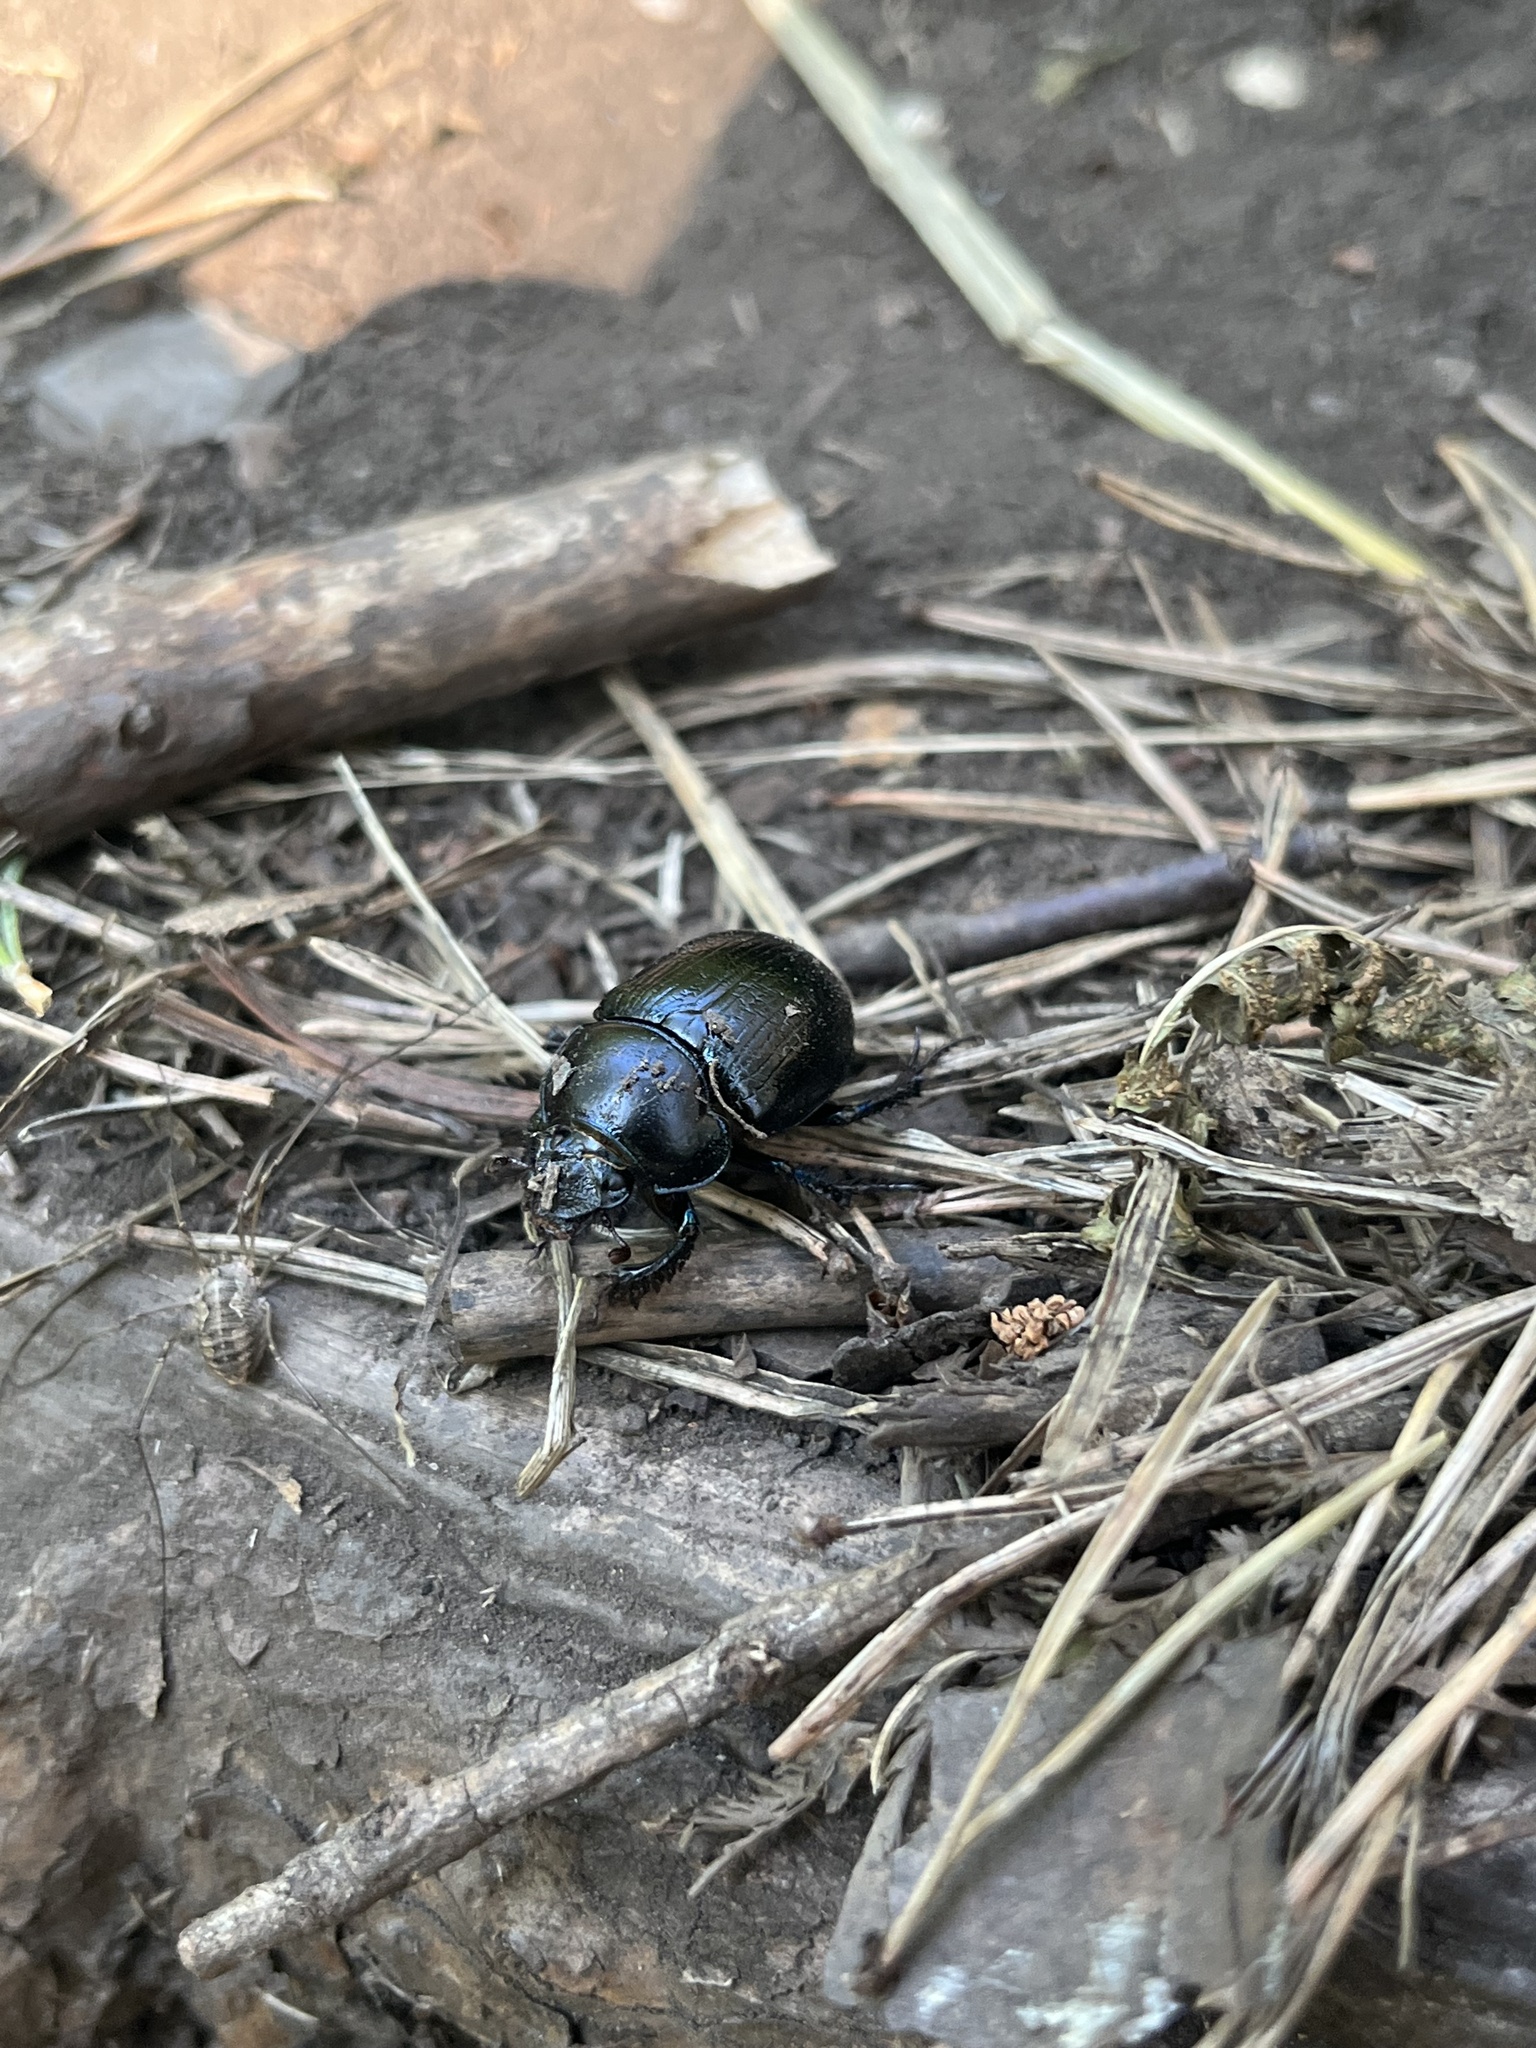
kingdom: Animalia
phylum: Arthropoda
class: Insecta
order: Coleoptera
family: Geotrupidae
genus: Anoplotrupes
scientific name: Anoplotrupes stercorosus
